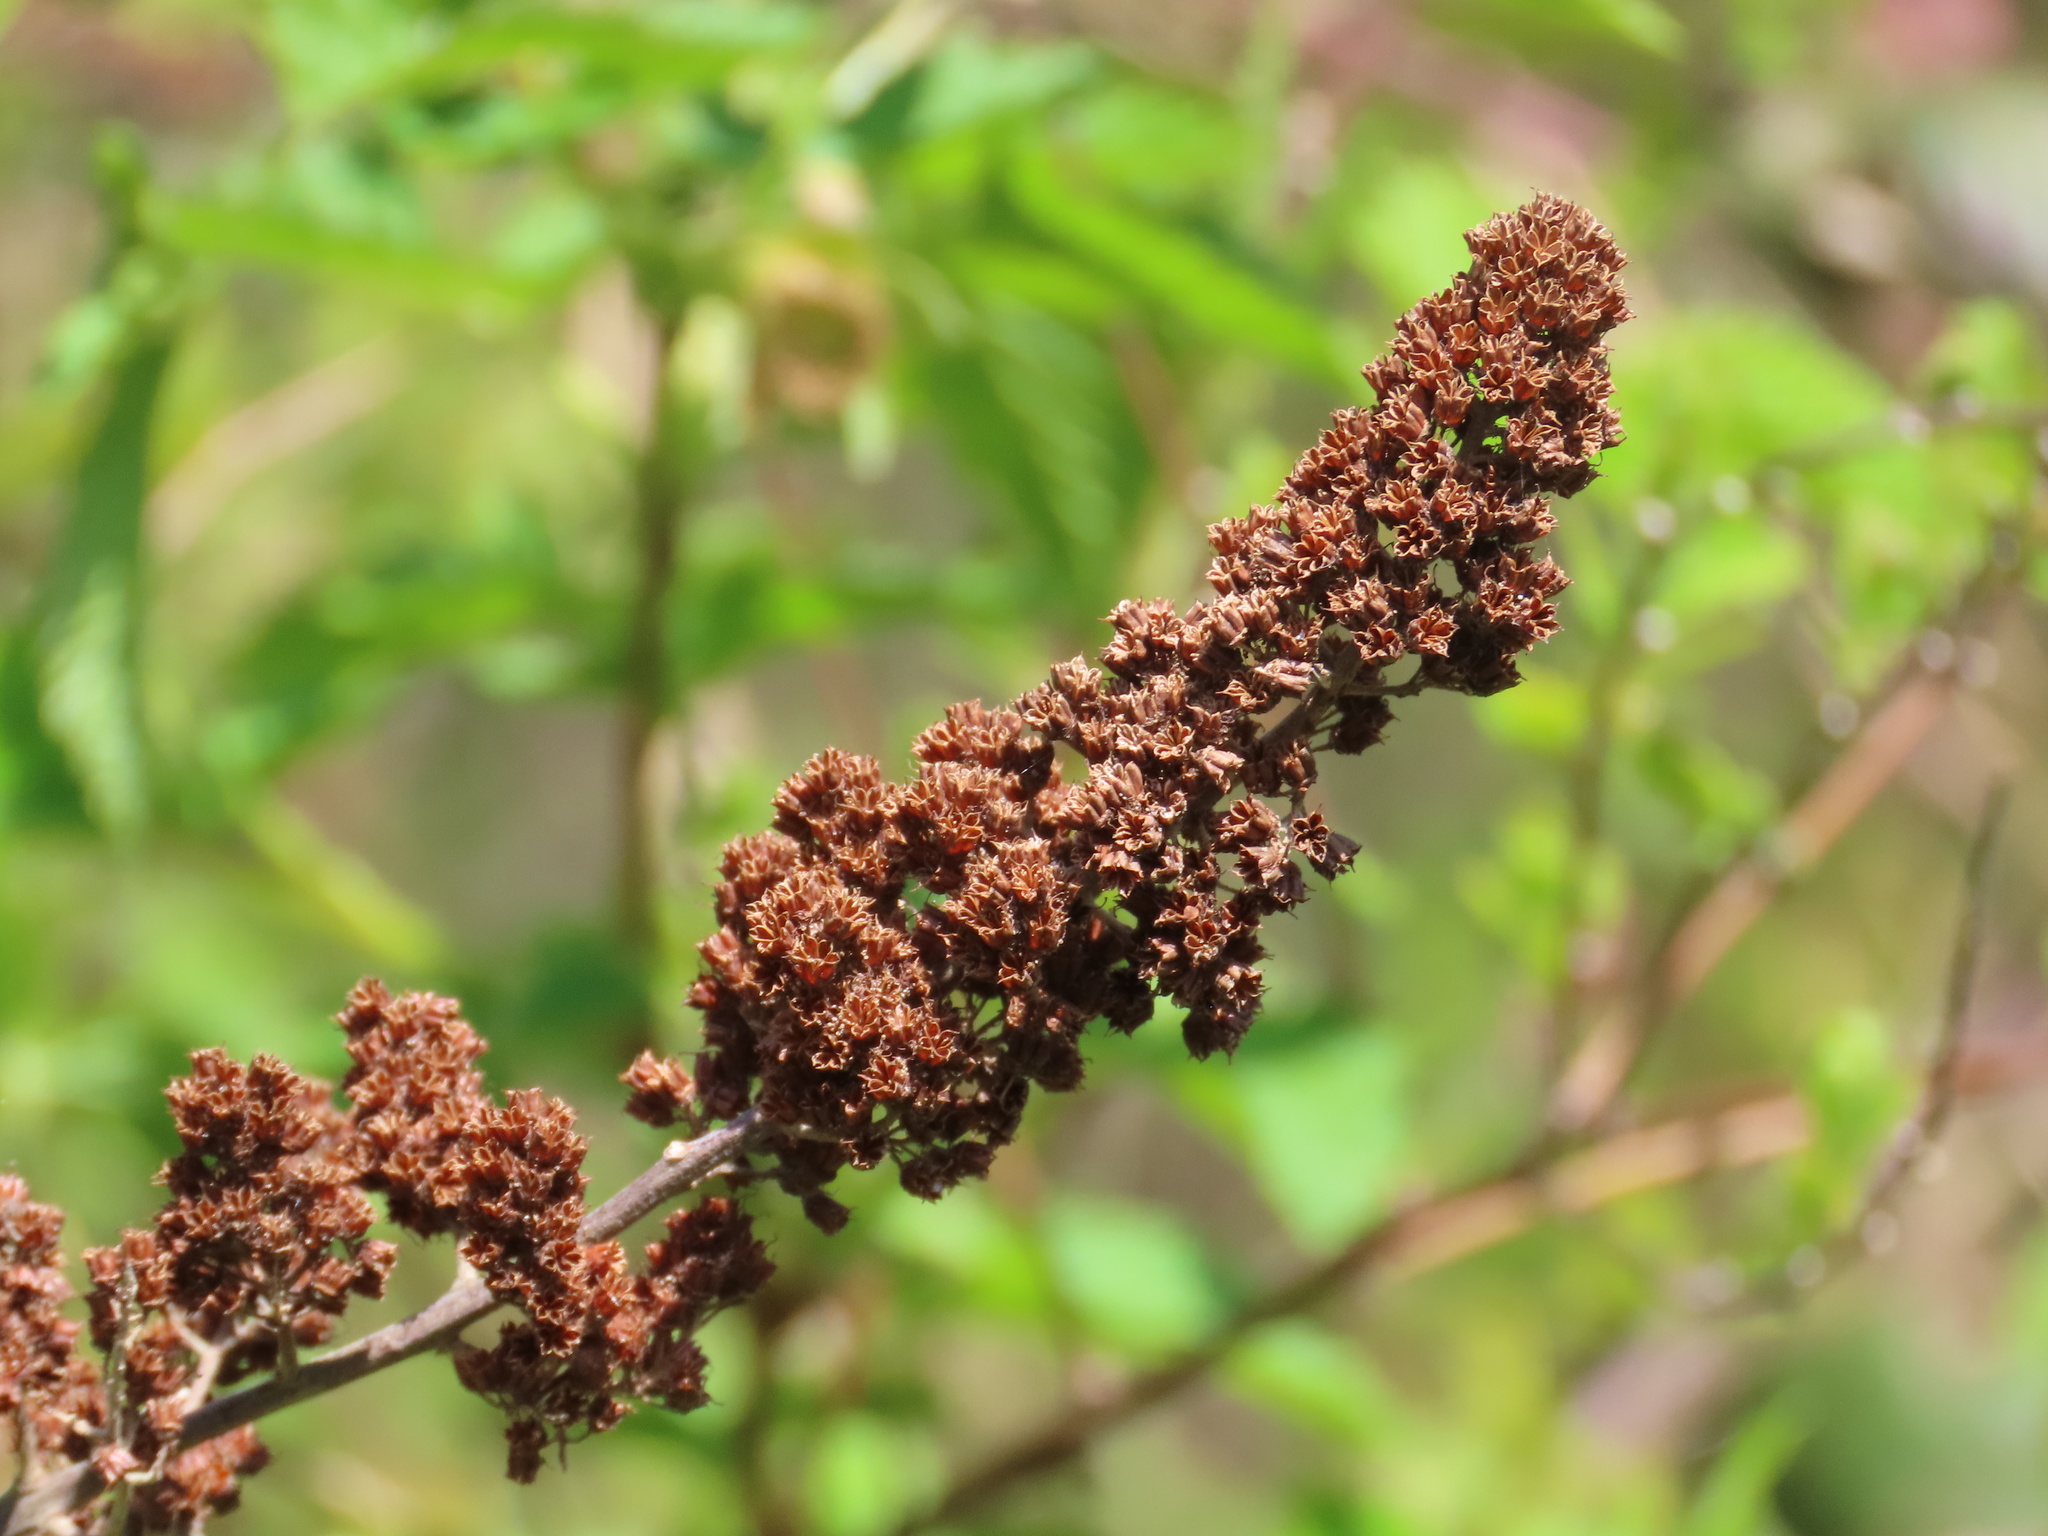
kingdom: Plantae
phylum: Tracheophyta
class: Magnoliopsida
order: Rosales
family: Rosaceae
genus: Spiraea
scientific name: Spiraea douglasii
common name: Steeplebush
